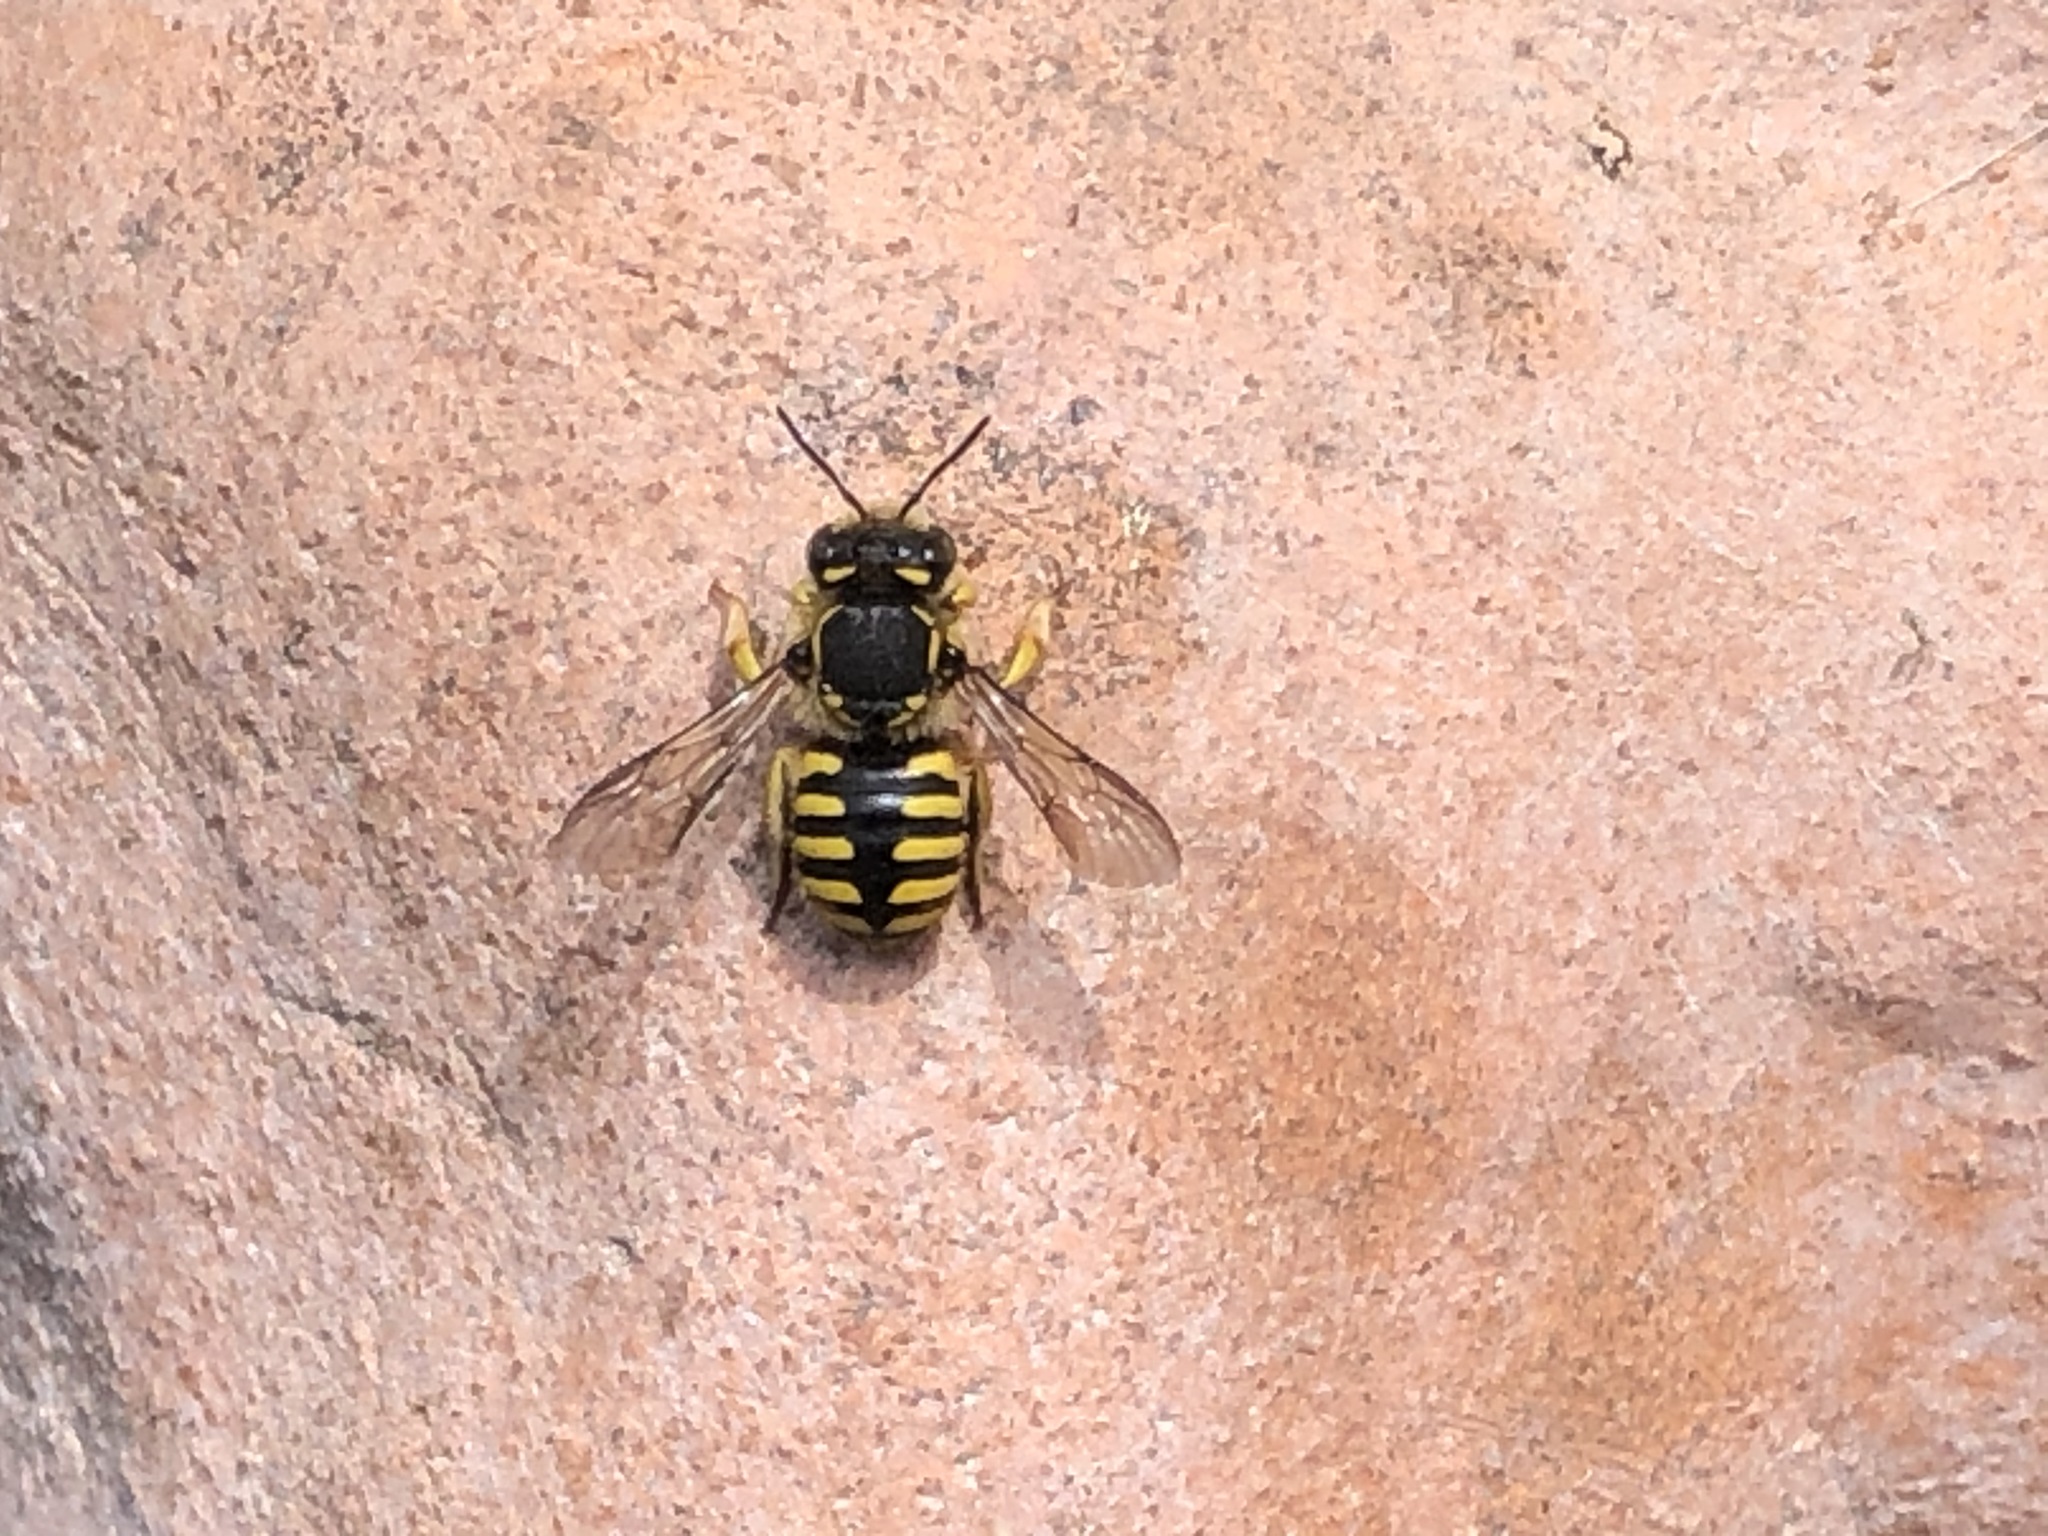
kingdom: Animalia
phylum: Arthropoda
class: Insecta
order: Hymenoptera
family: Megachilidae
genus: Anthidium
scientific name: Anthidium manicatum
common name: Wool carder bee
